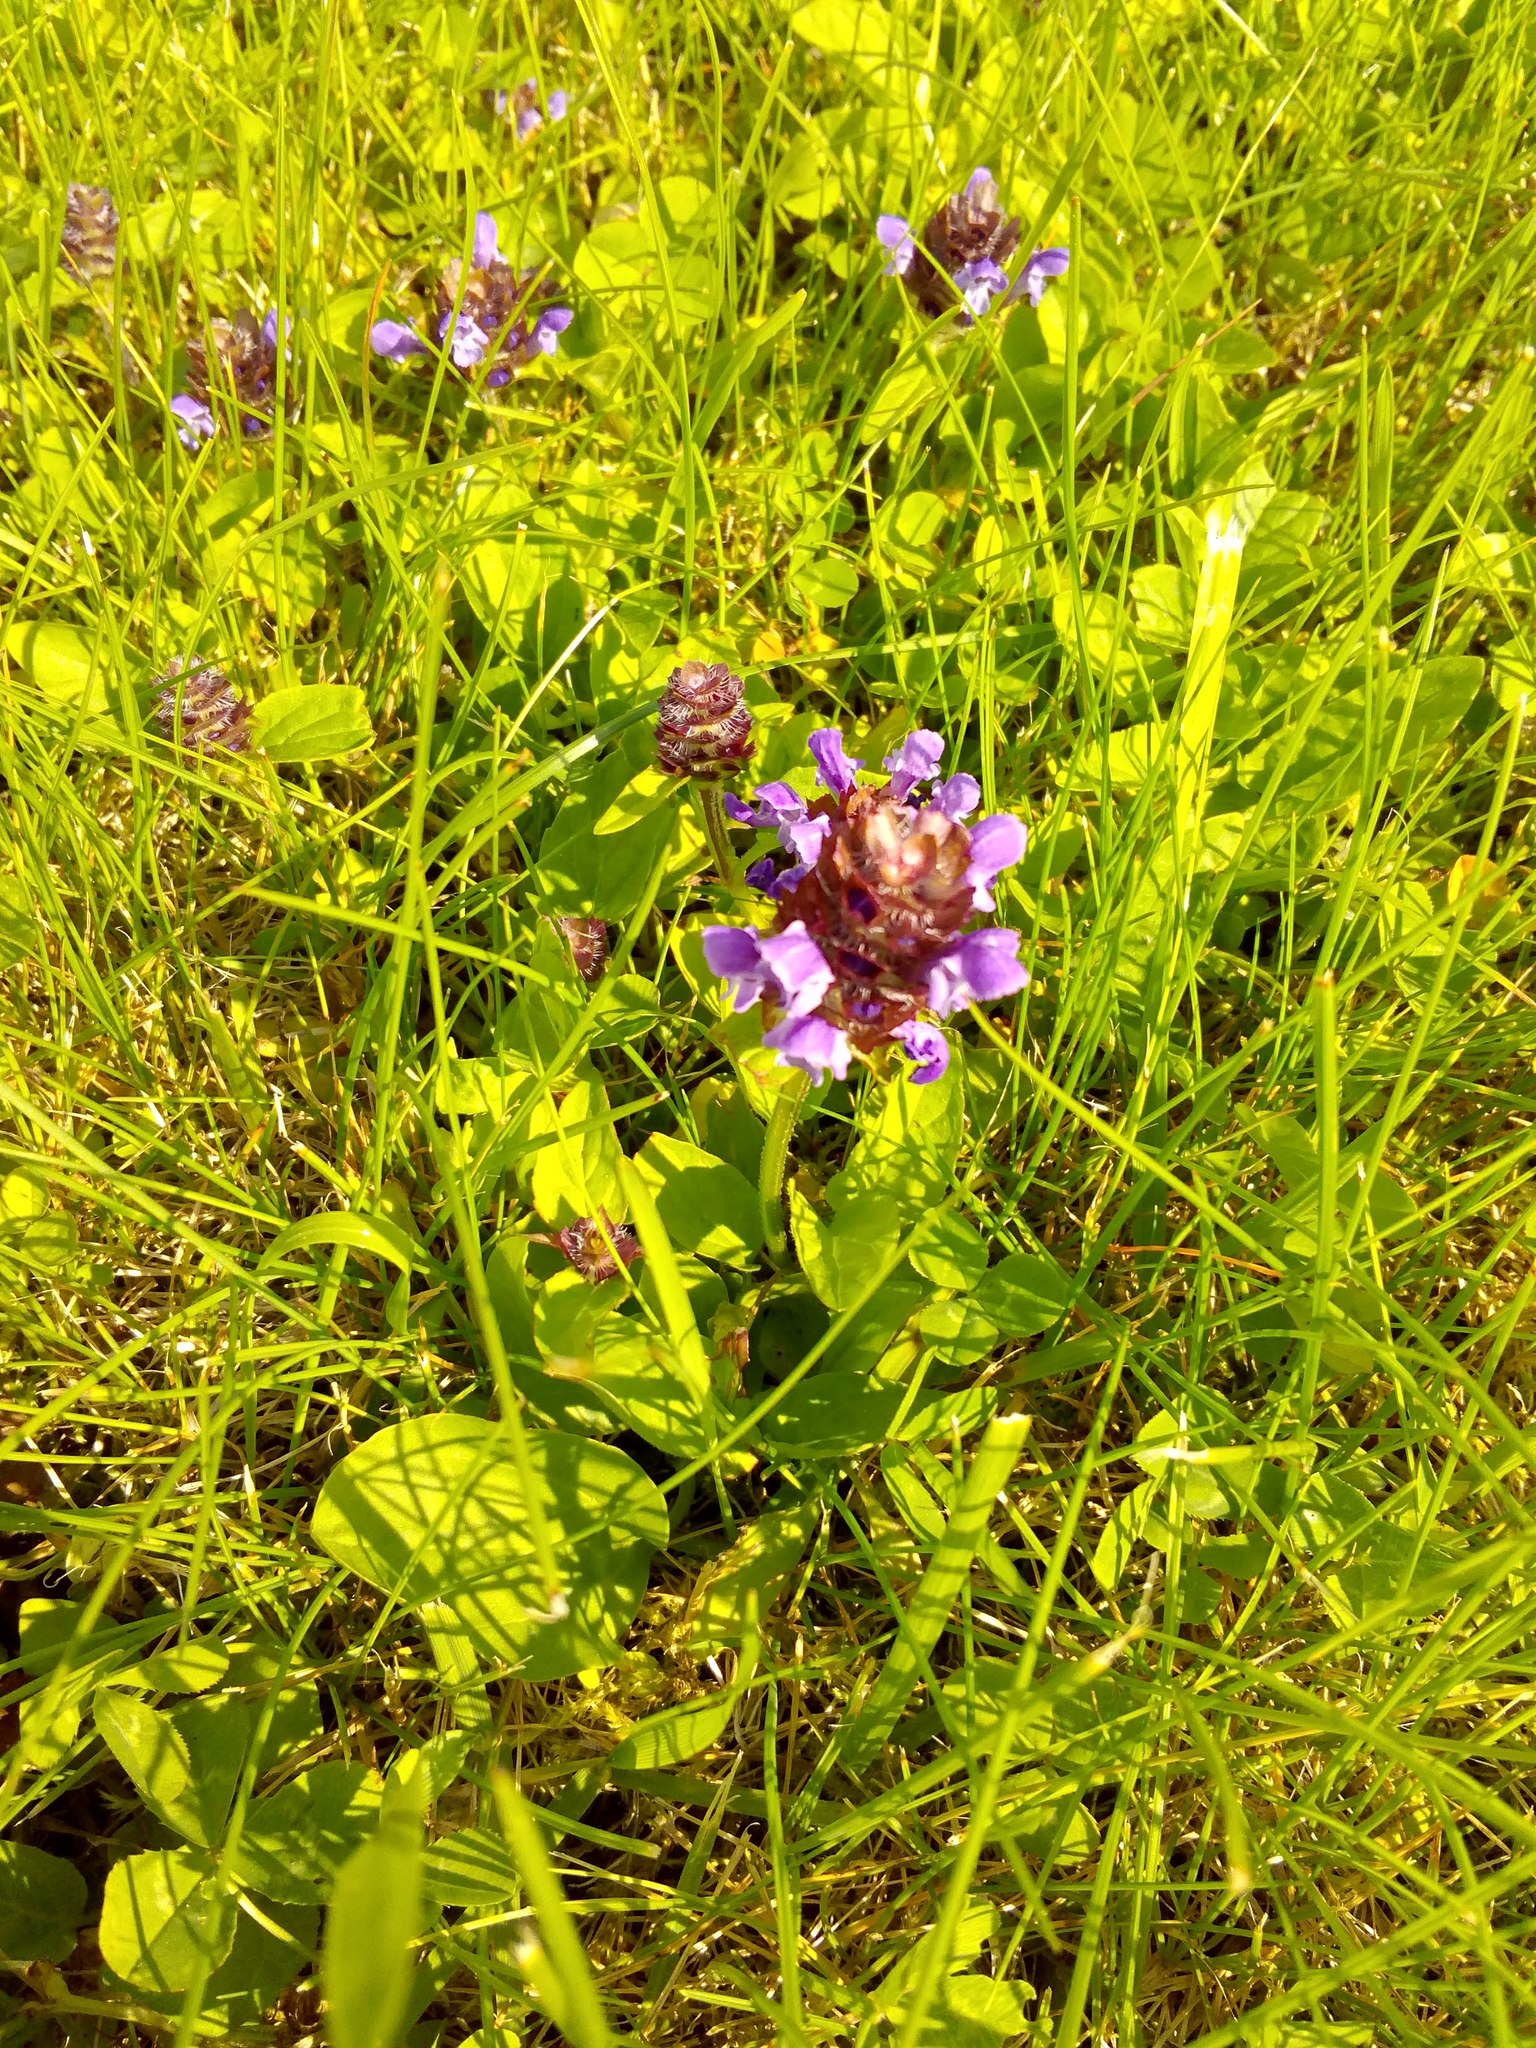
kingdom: Plantae
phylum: Tracheophyta
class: Magnoliopsida
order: Lamiales
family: Lamiaceae
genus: Prunella
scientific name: Prunella vulgaris
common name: Heal-all
